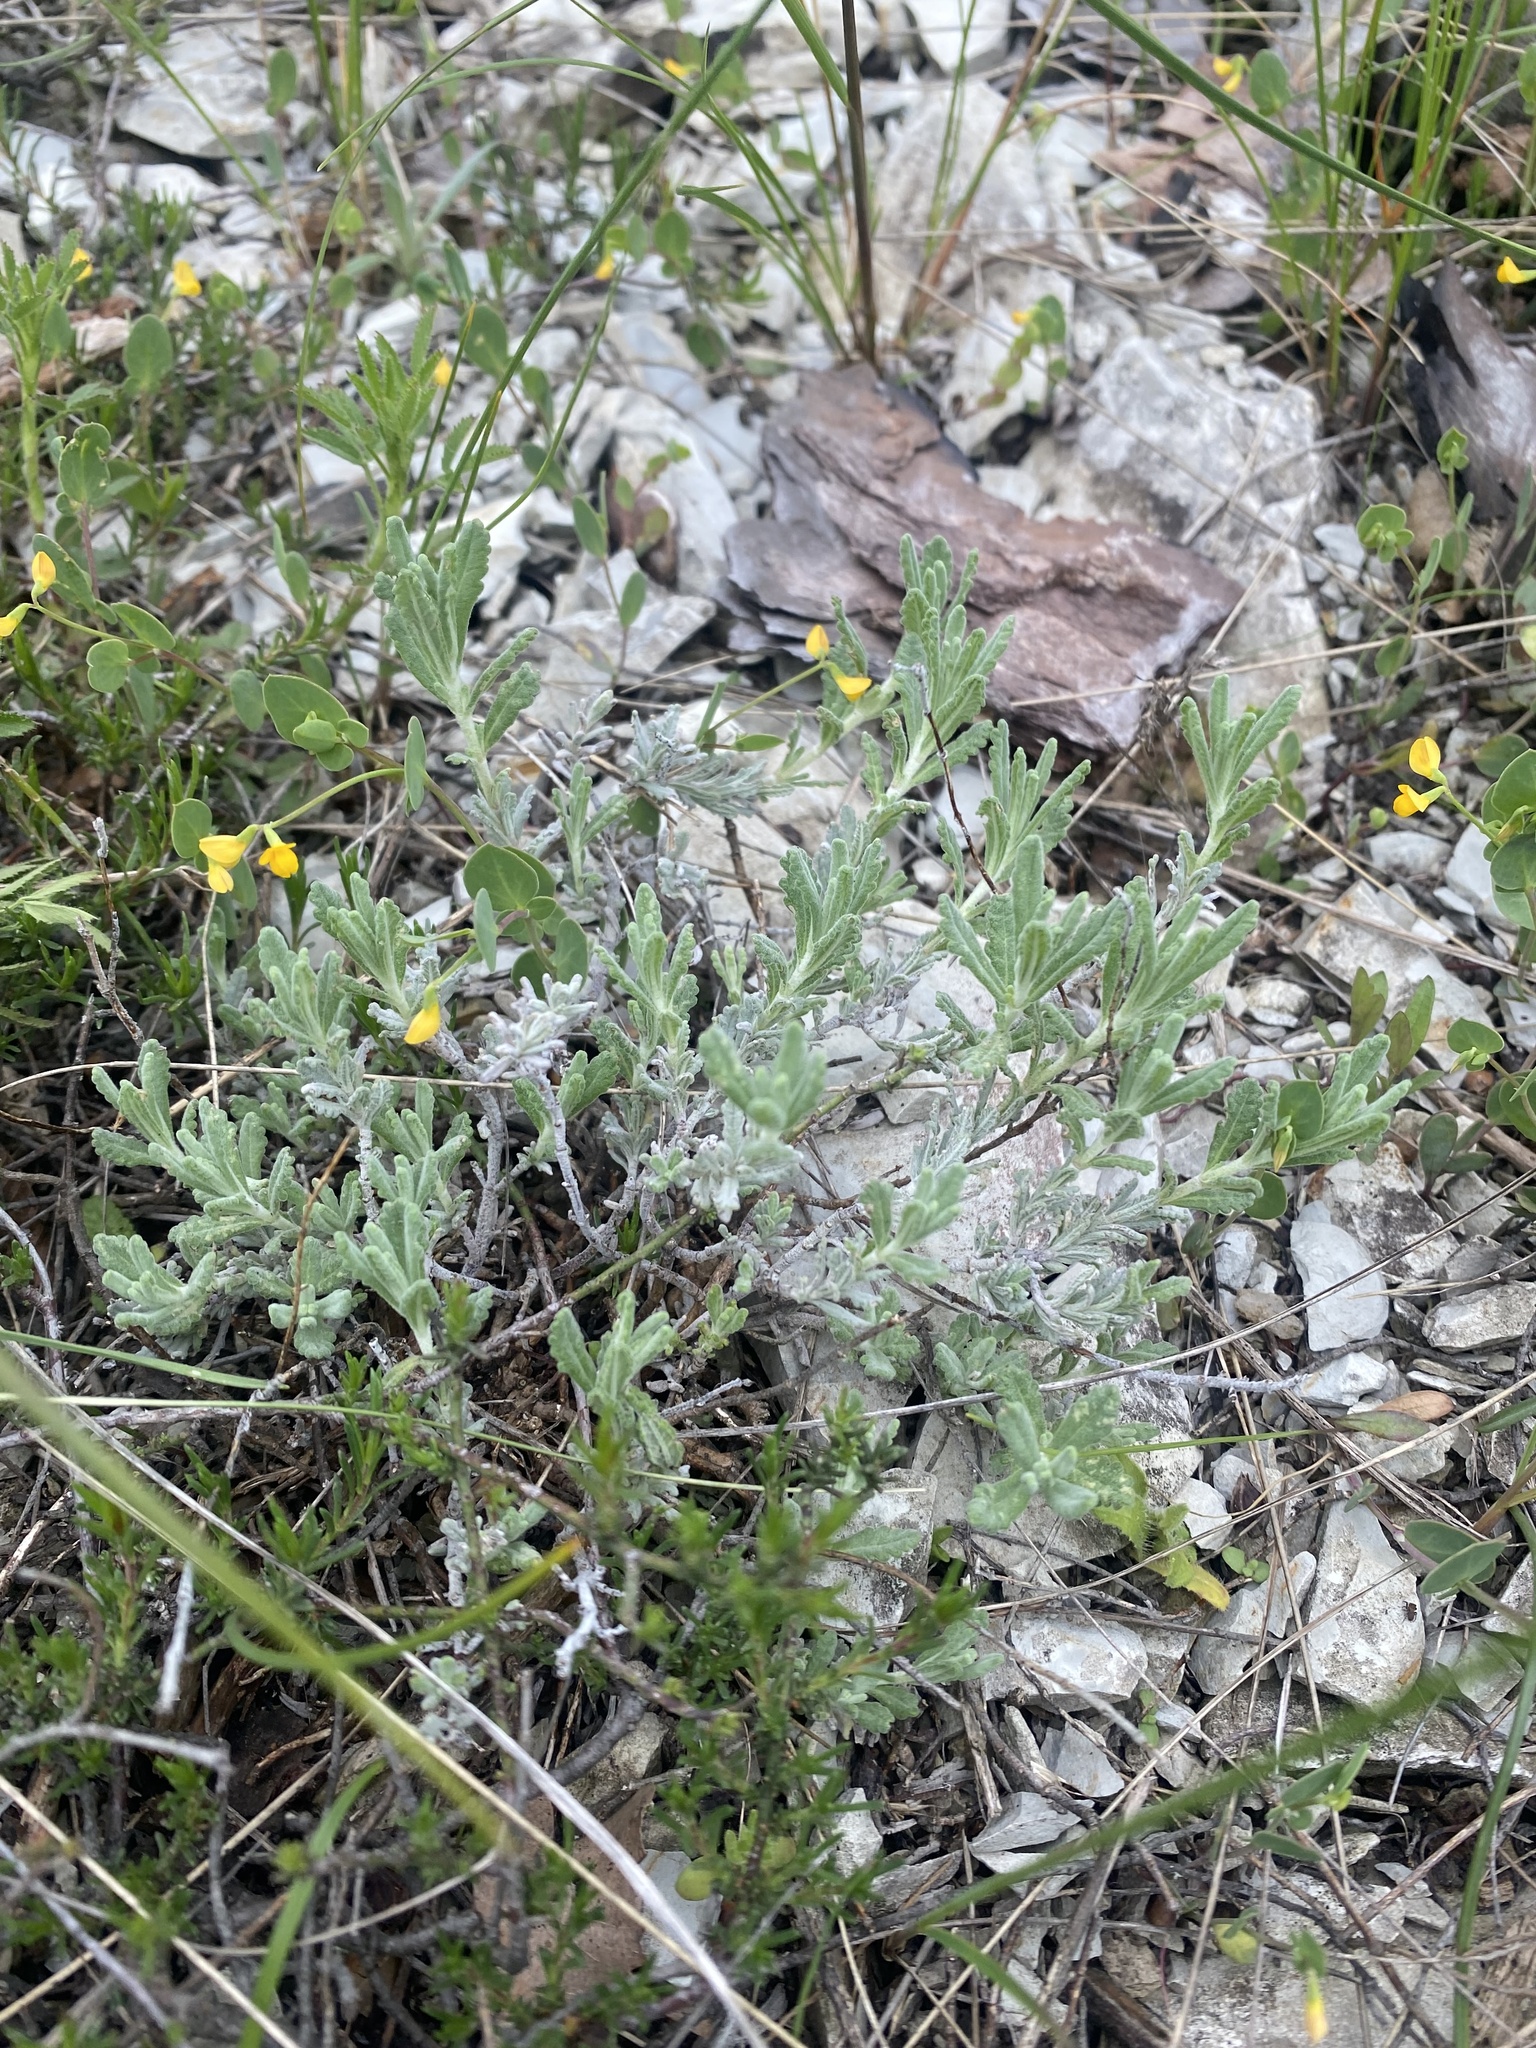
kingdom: Plantae
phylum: Tracheophyta
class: Magnoliopsida
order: Lamiales
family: Lamiaceae
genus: Teucrium
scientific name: Teucrium polium
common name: Poley
